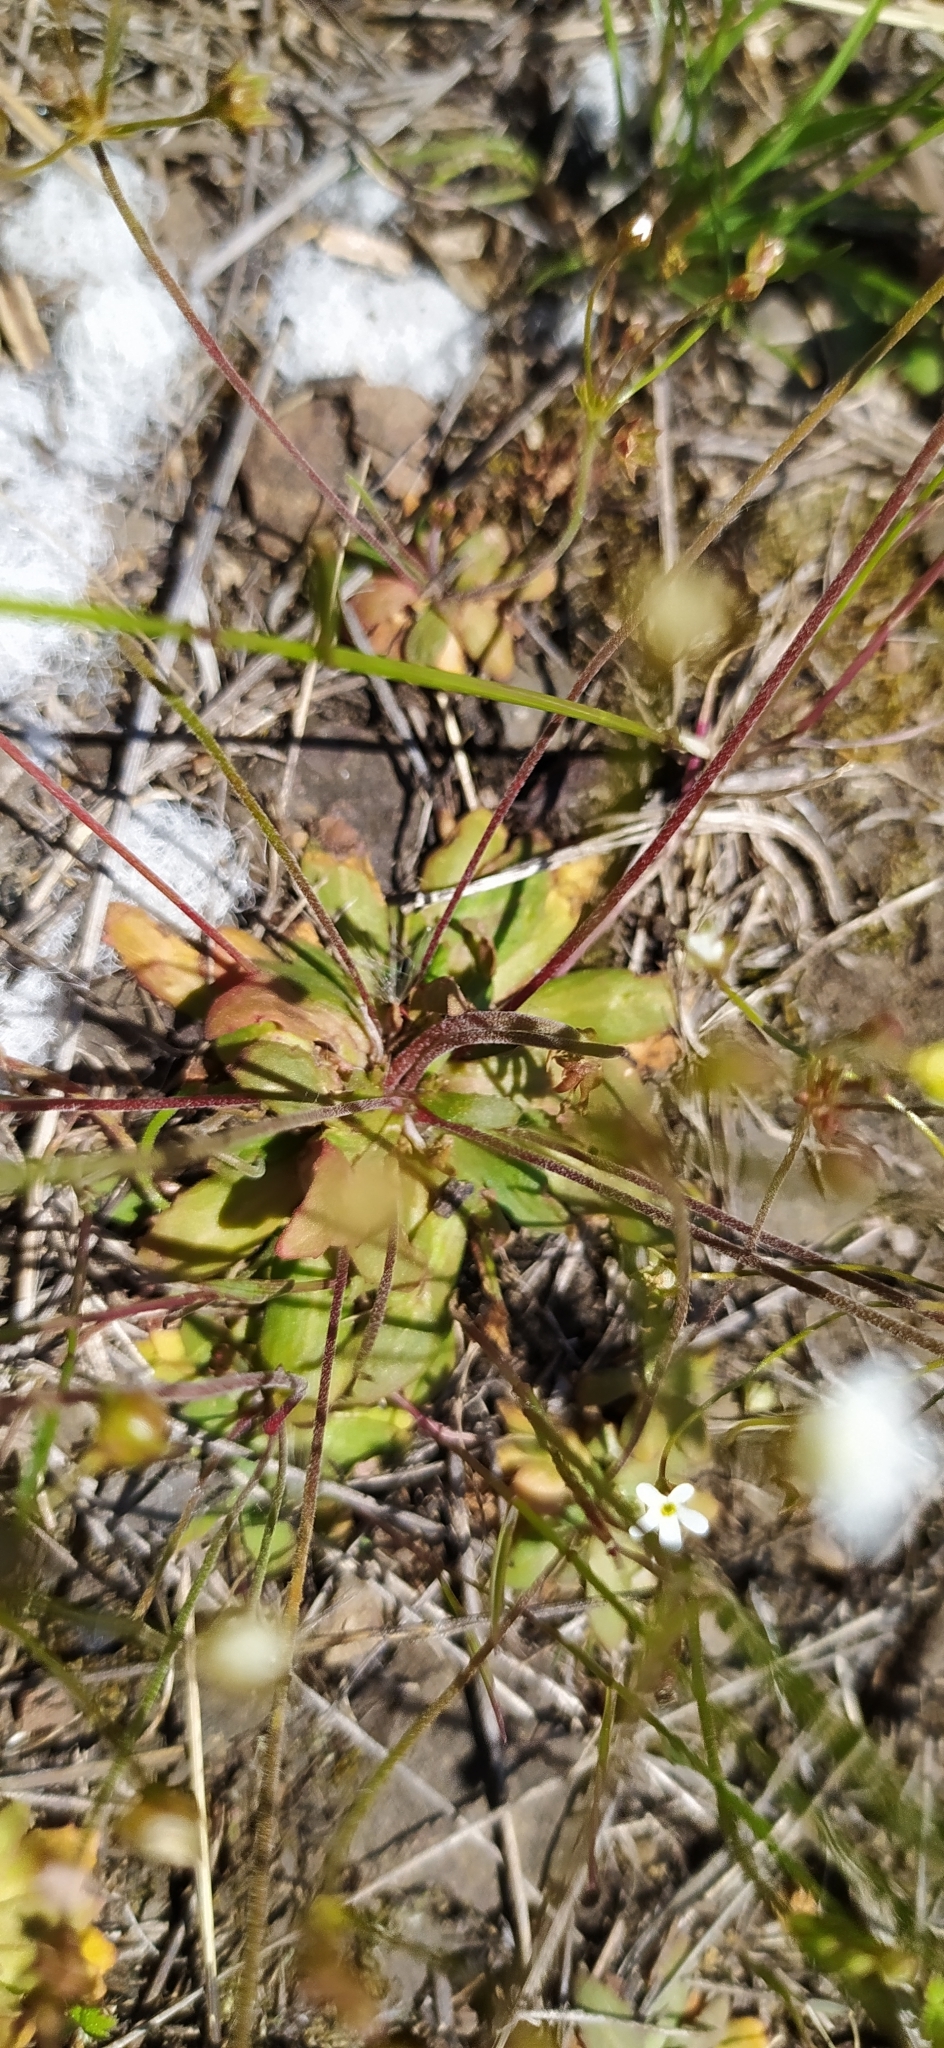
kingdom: Plantae
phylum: Tracheophyta
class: Magnoliopsida
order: Ericales
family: Primulaceae
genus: Androsace
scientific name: Androsace septentrionalis
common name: Hairy northern fairy-candelabra
